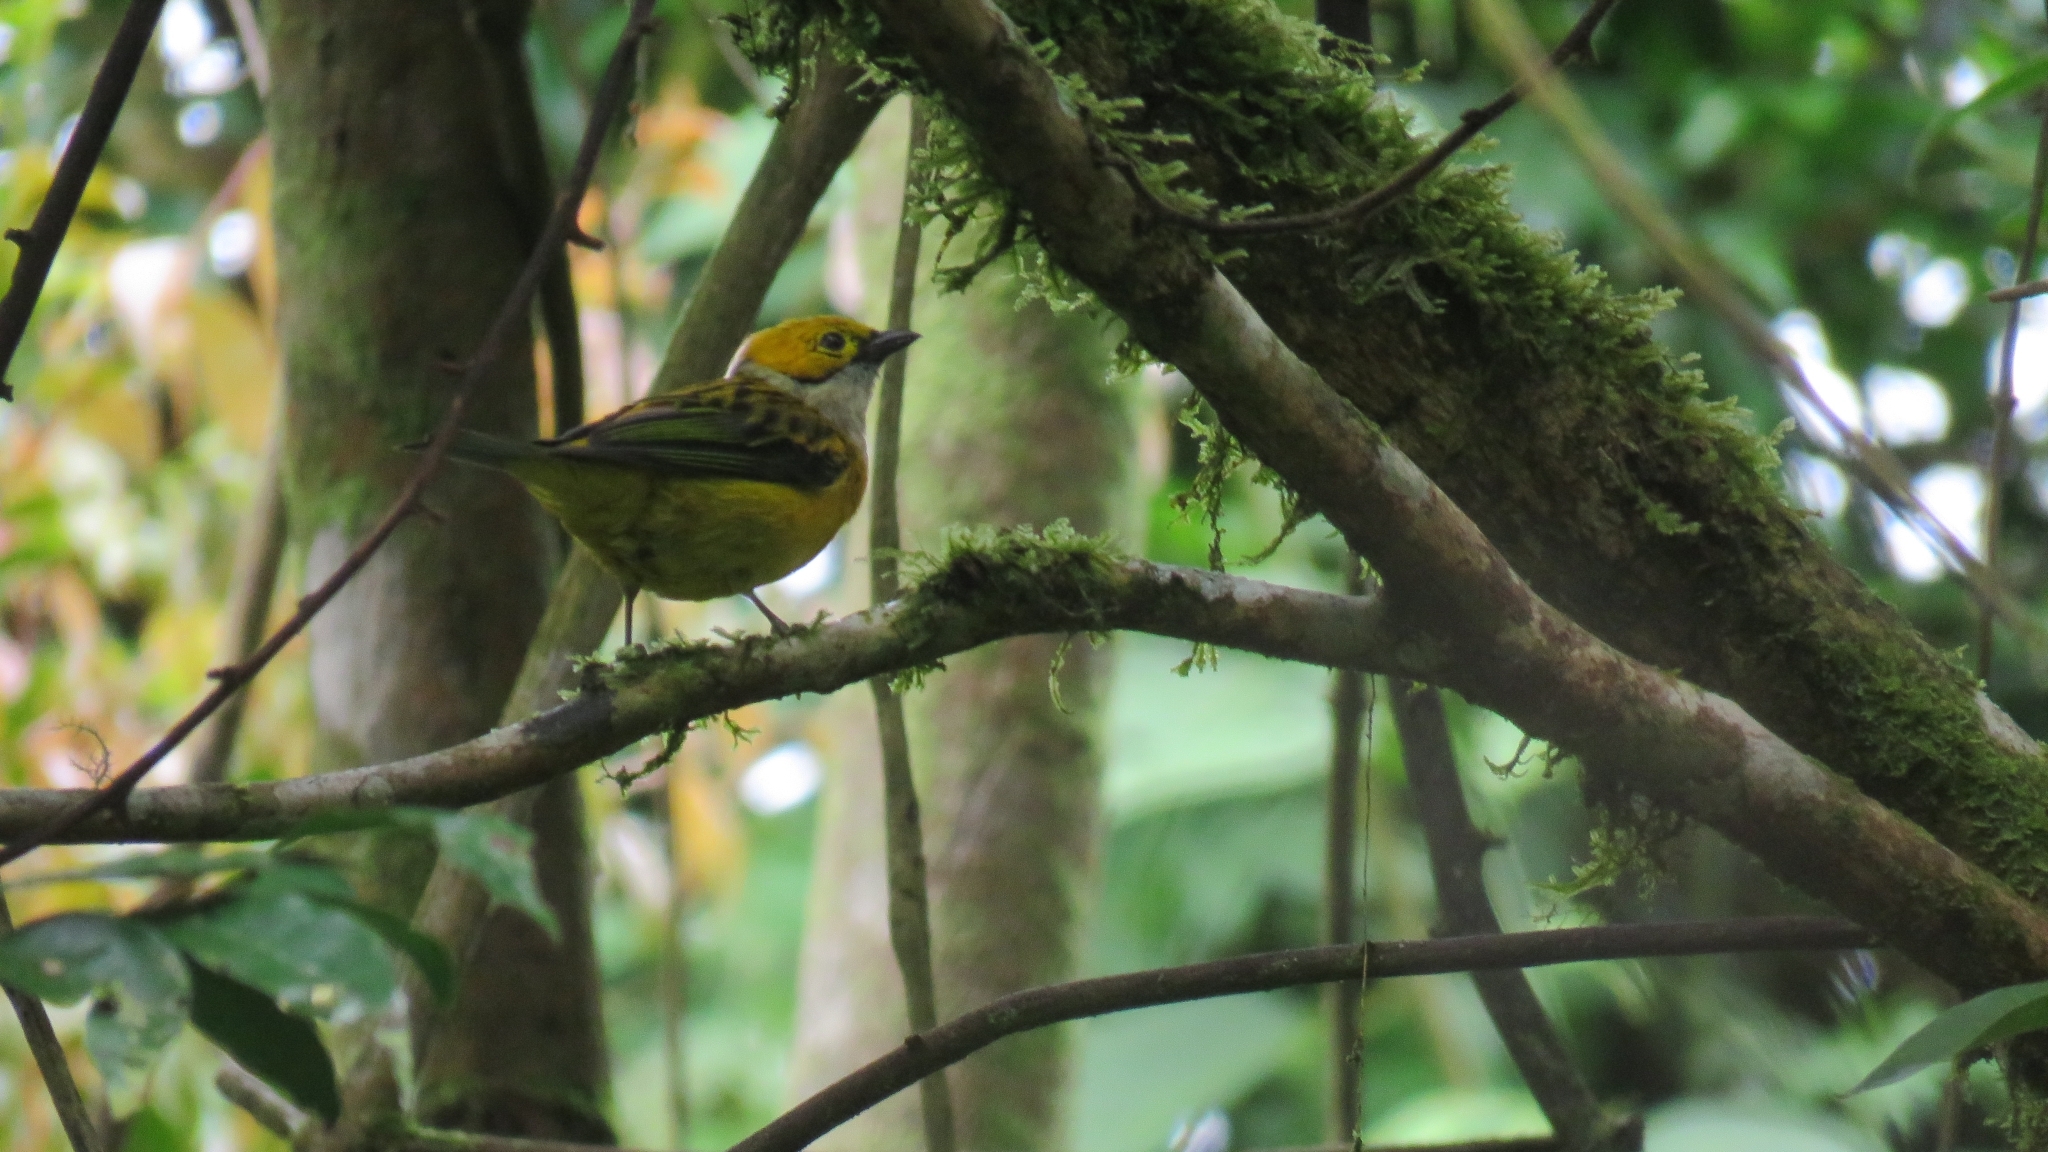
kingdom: Animalia
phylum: Chordata
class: Aves
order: Passeriformes
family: Thraupidae
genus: Tangara
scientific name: Tangara icterocephala
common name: Silver-throated tanager
